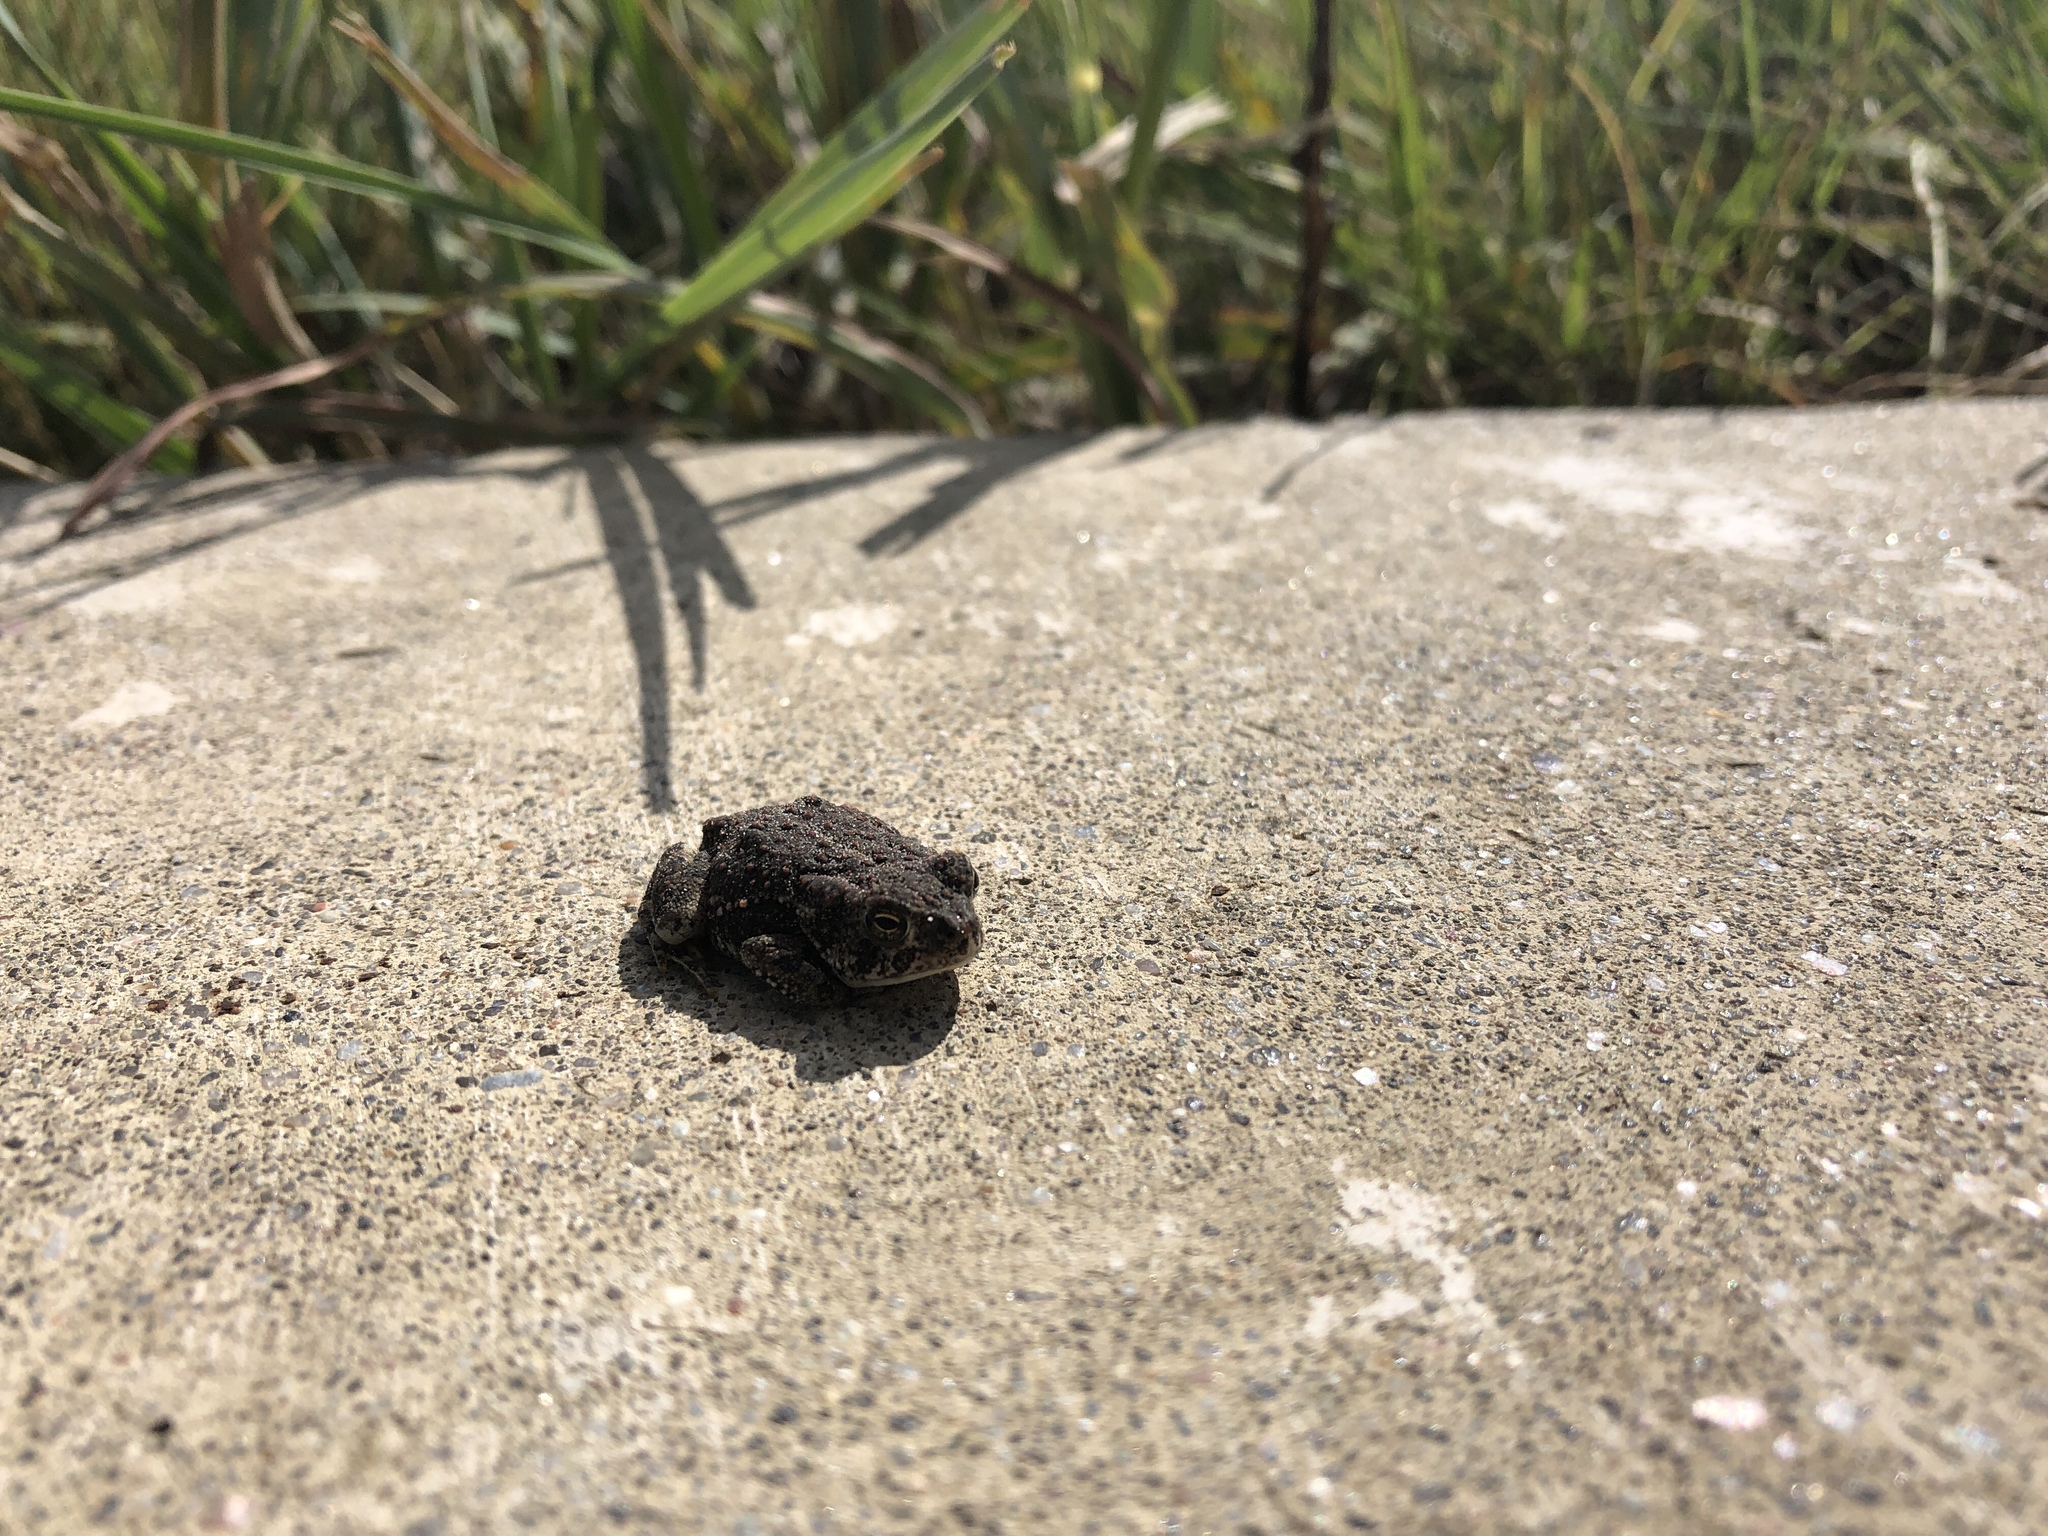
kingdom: Animalia
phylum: Chordata
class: Amphibia
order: Anura
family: Bufonidae
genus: Anaxyrus
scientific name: Anaxyrus woodhousii
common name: Woodhouse's toad
